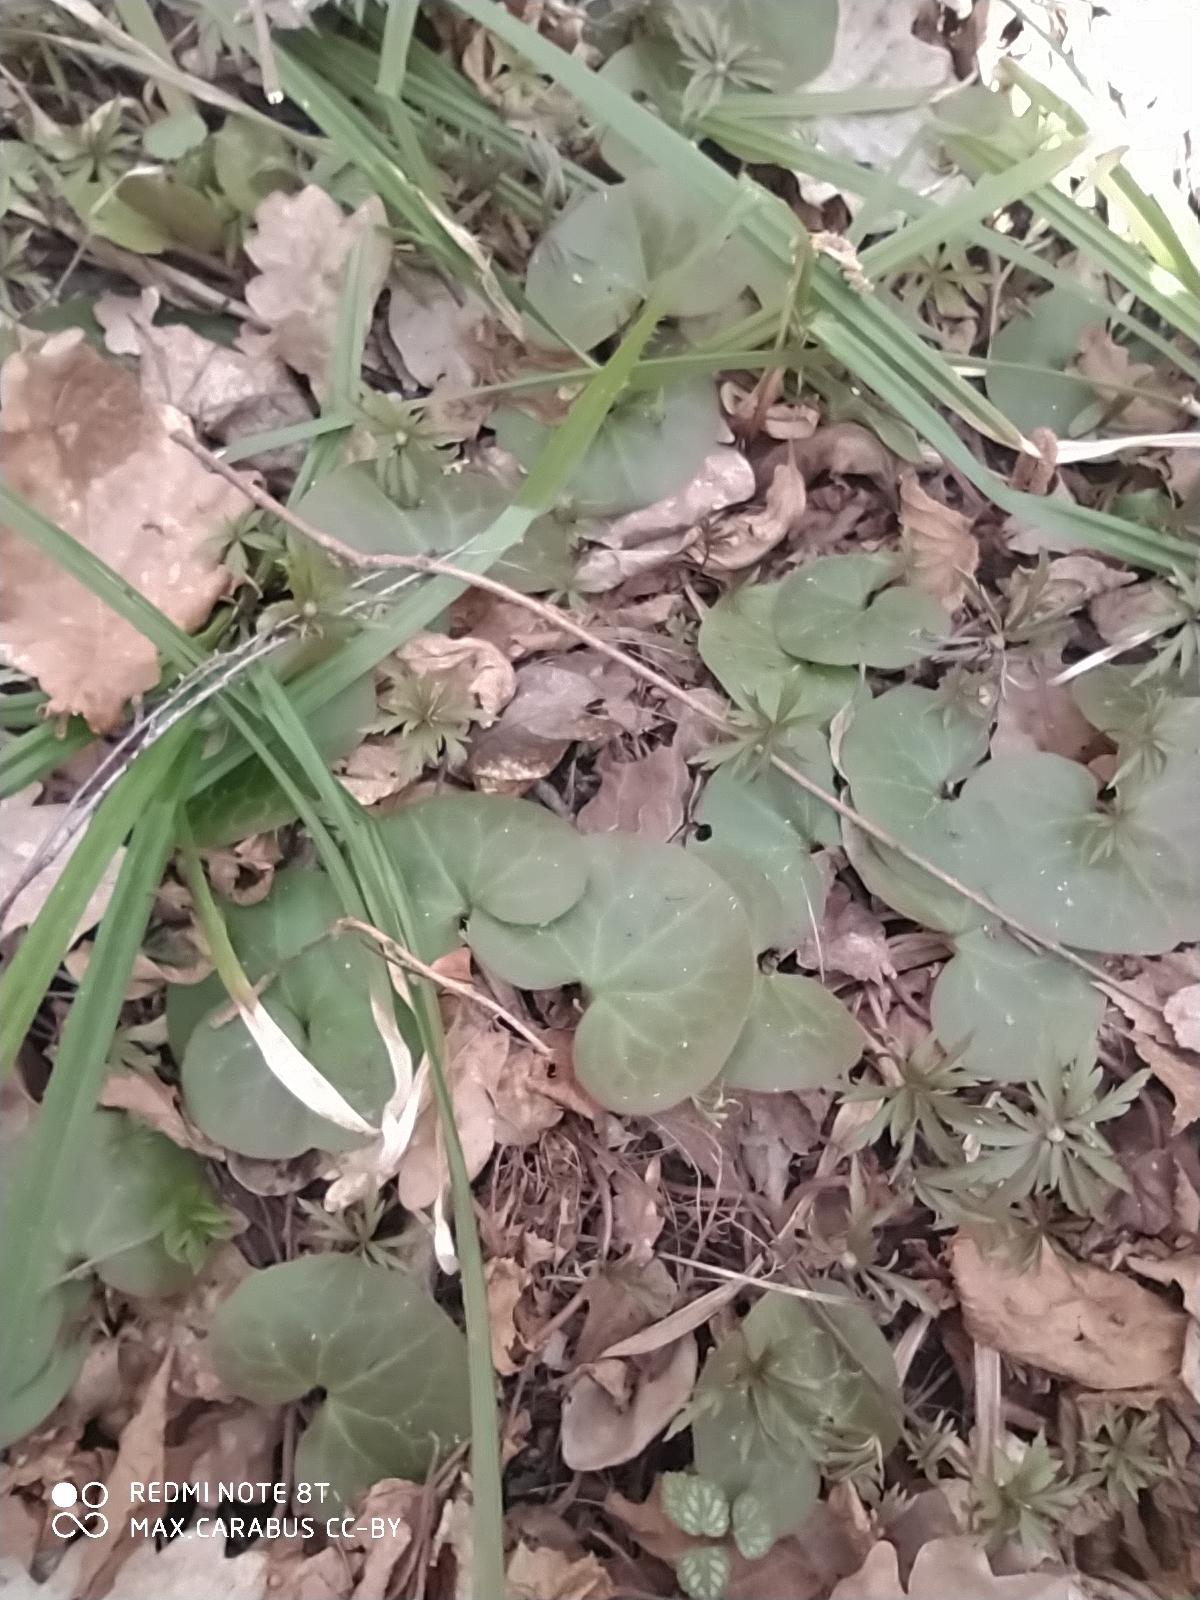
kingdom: Plantae
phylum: Tracheophyta
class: Magnoliopsida
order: Piperales
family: Aristolochiaceae
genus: Asarum
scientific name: Asarum europaeum
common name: Asarabacca
